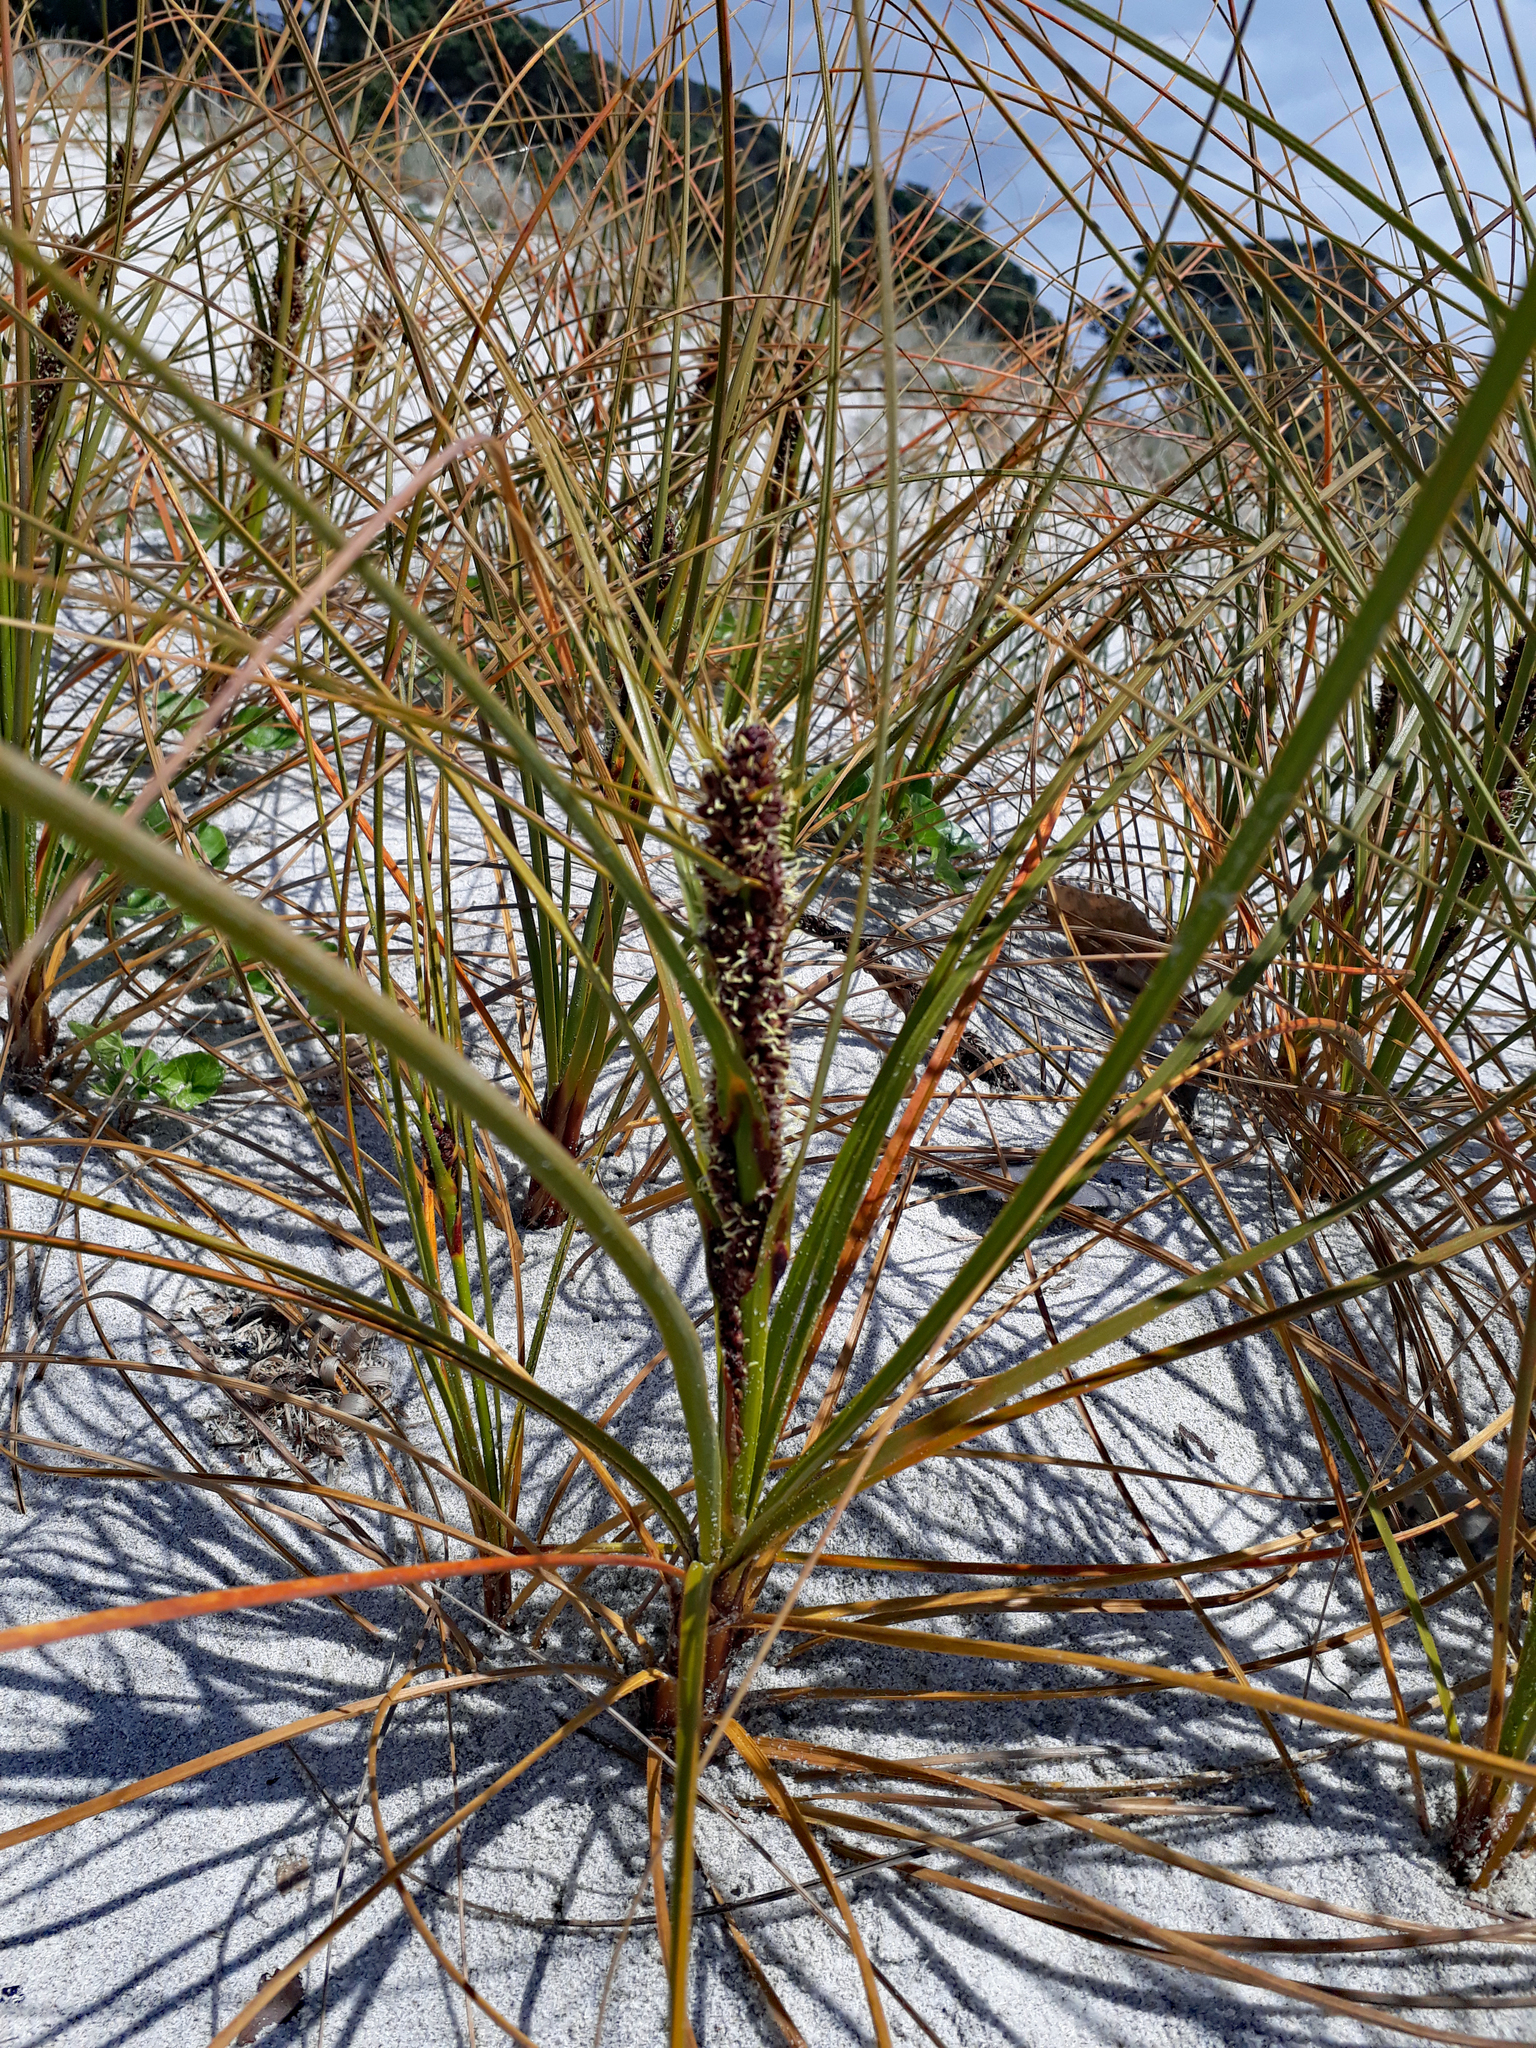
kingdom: Plantae
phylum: Tracheophyta
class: Liliopsida
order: Poales
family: Cyperaceae
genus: Ficinia
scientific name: Ficinia spiralis
